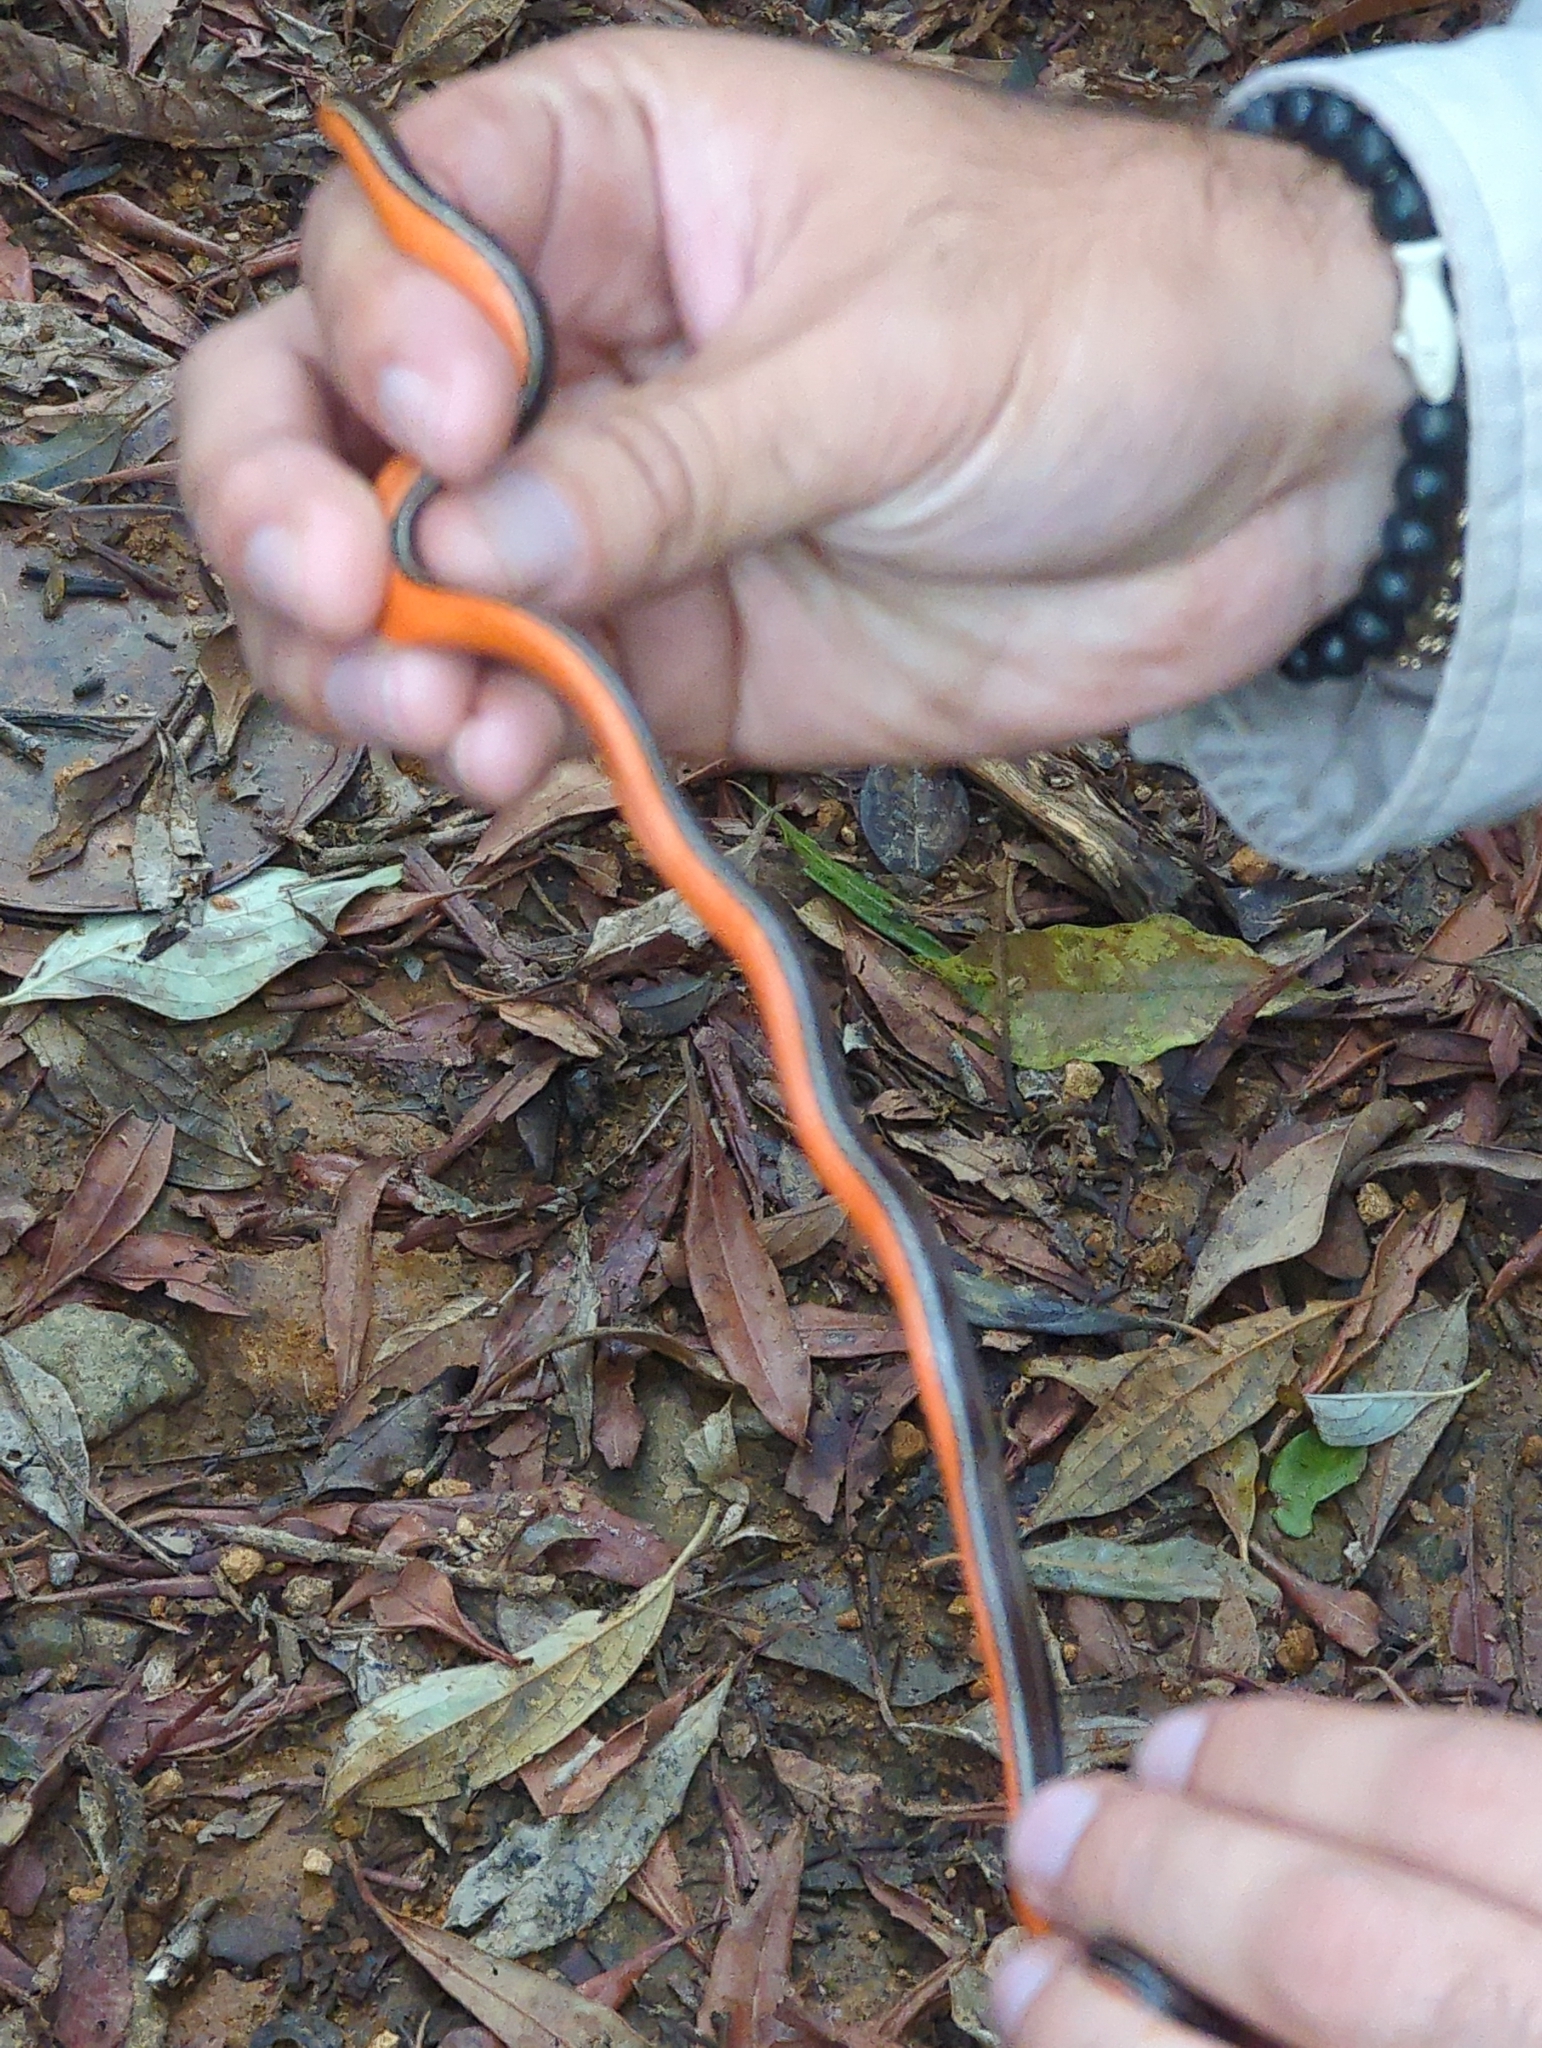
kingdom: Animalia
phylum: Chordata
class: Squamata
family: Colubridae
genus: Urotheca
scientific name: Urotheca guentheri
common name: Striped glasstail
